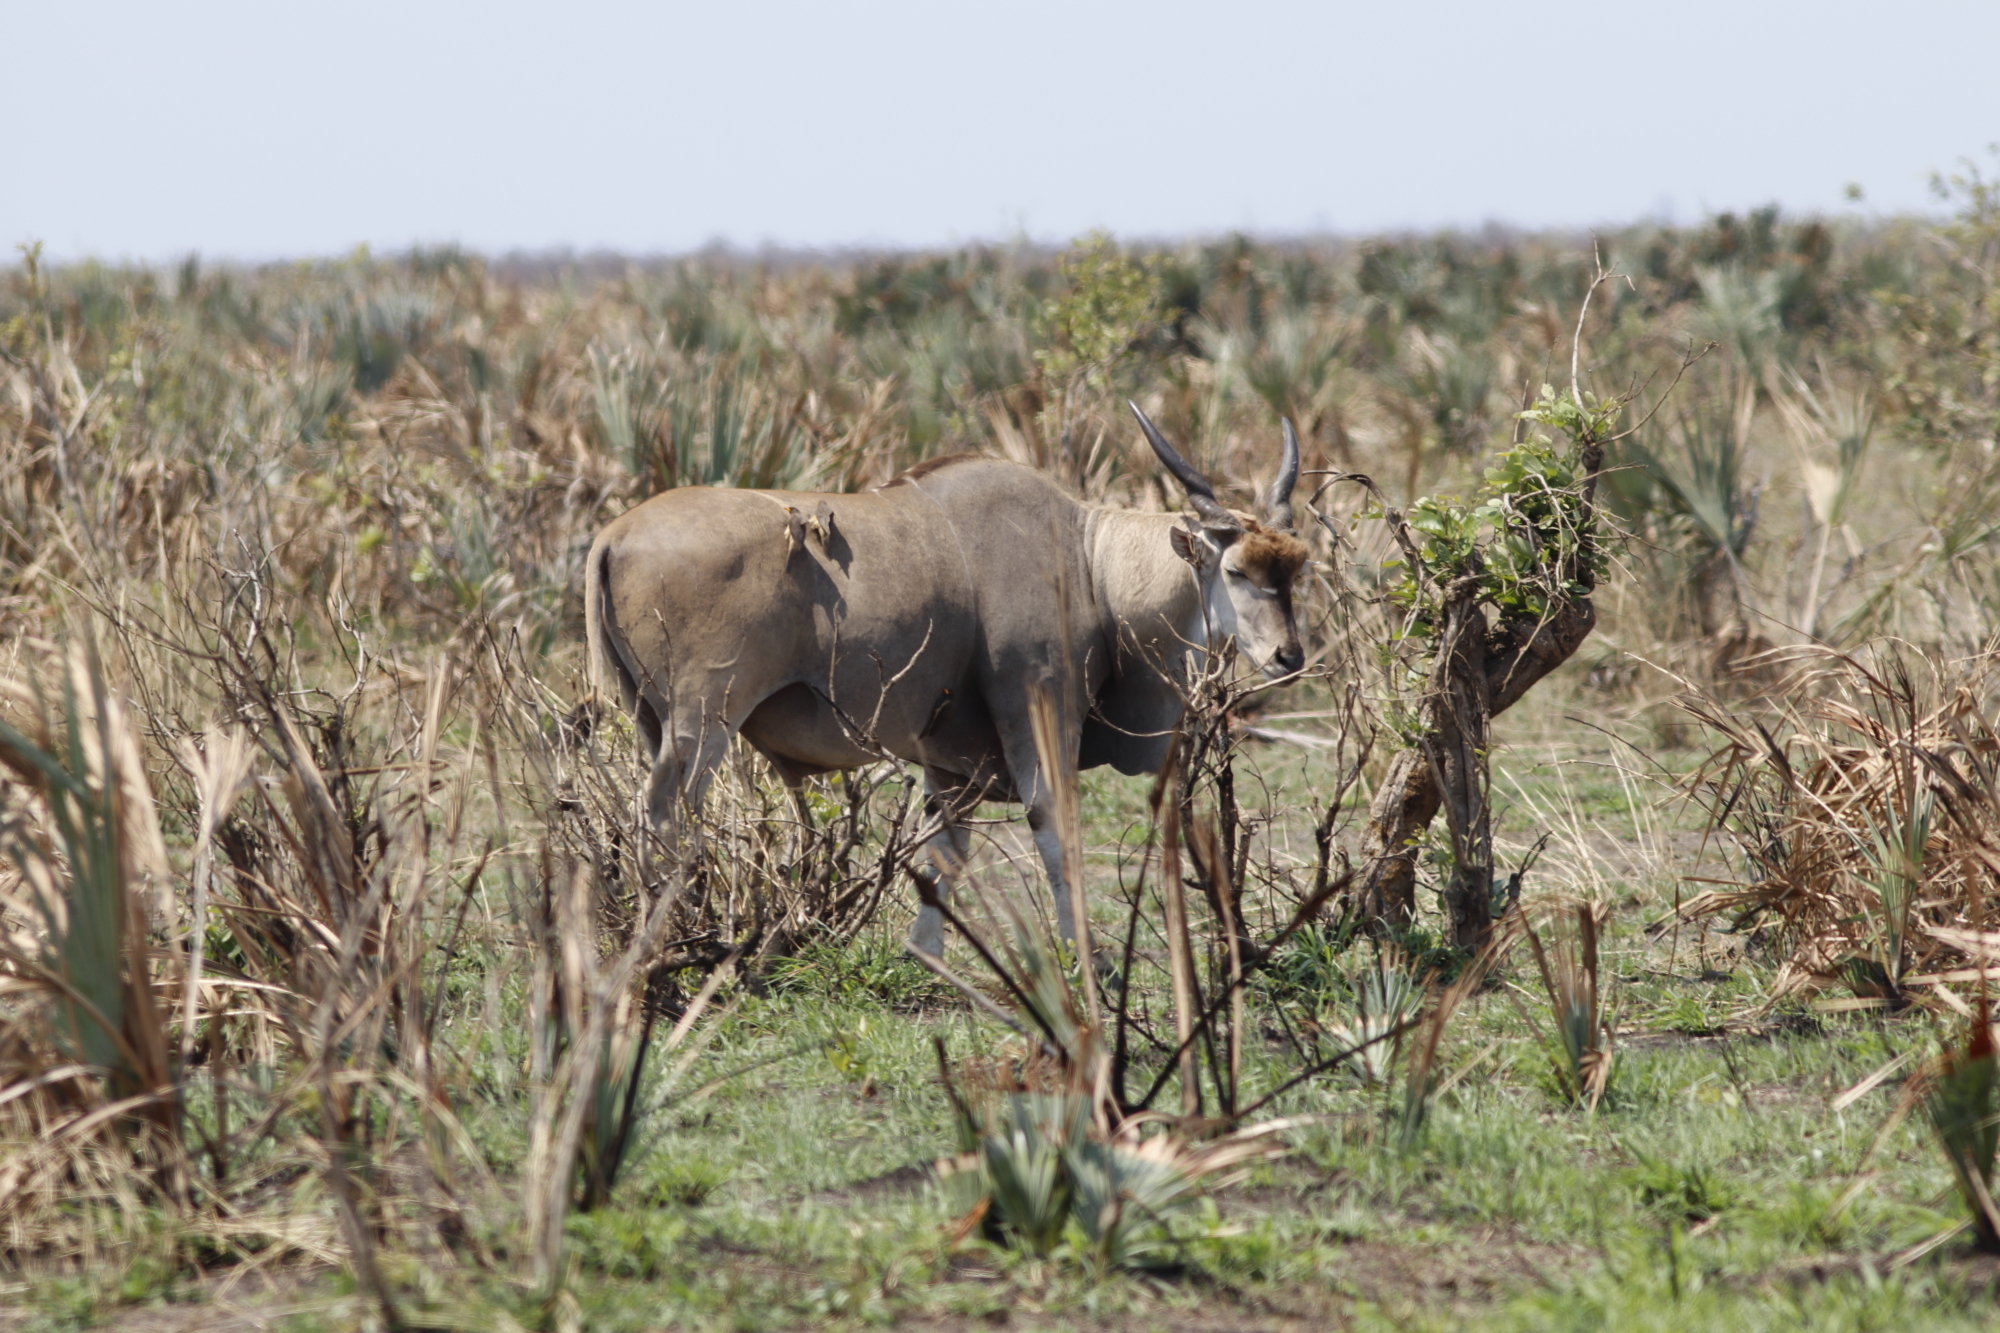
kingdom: Animalia
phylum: Chordata
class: Mammalia
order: Artiodactyla
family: Bovidae
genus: Taurotragus
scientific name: Taurotragus oryx
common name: Common eland
